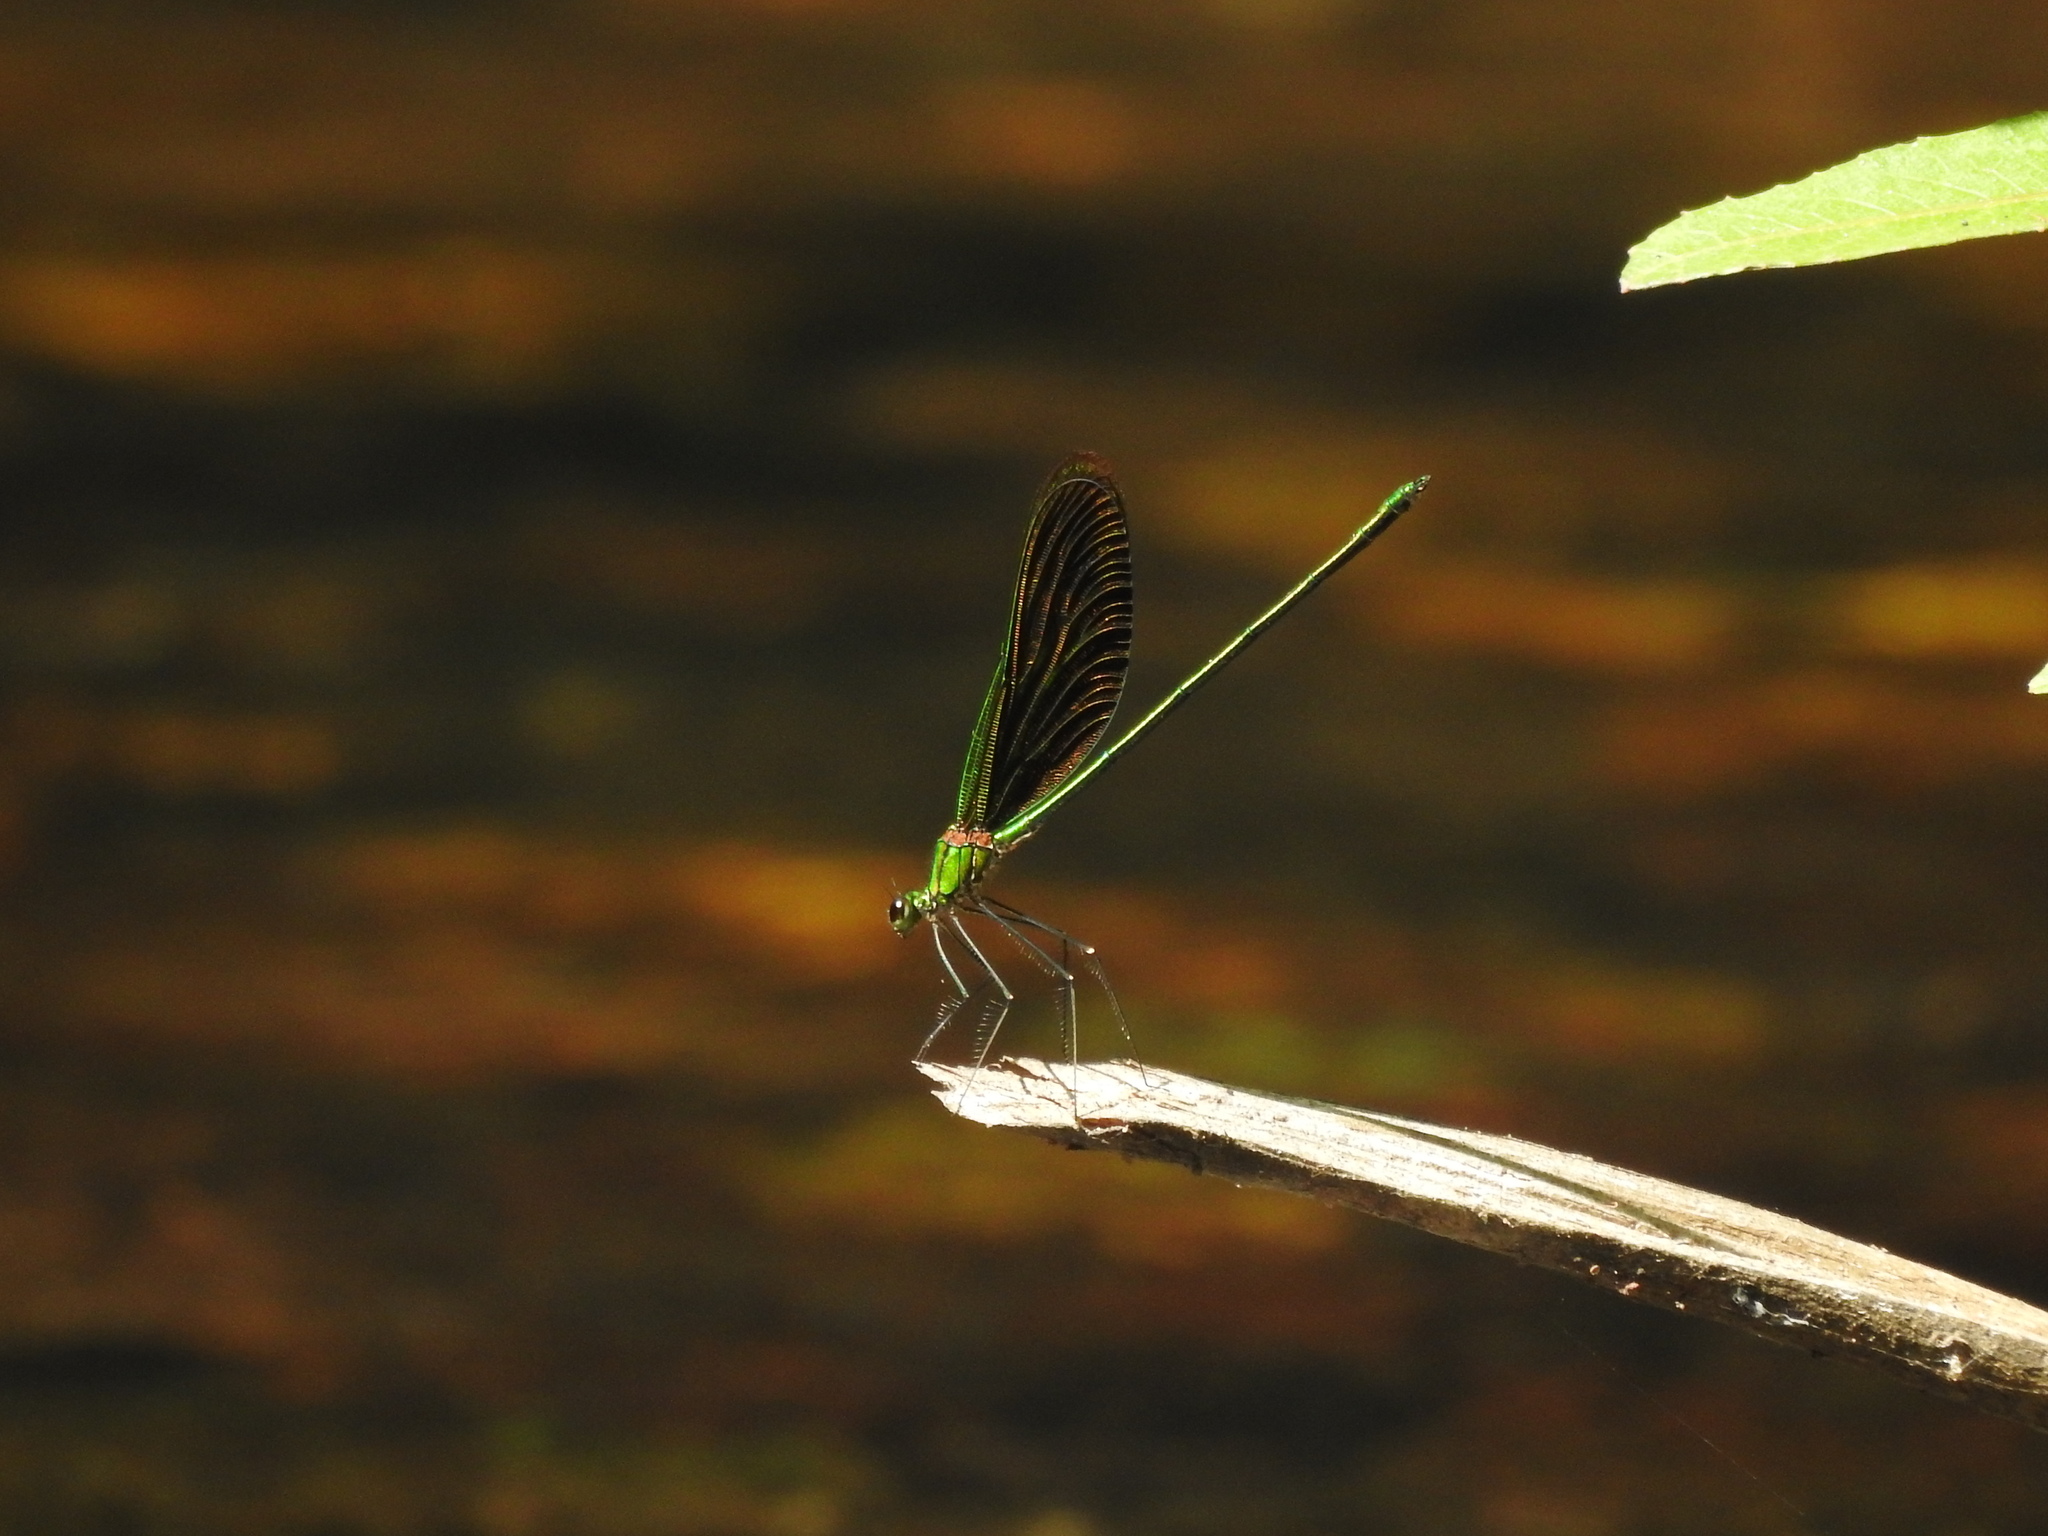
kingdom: Animalia
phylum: Arthropoda
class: Insecta
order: Odonata
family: Calopterygidae
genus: Neurobasis
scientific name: Neurobasis chinensis
